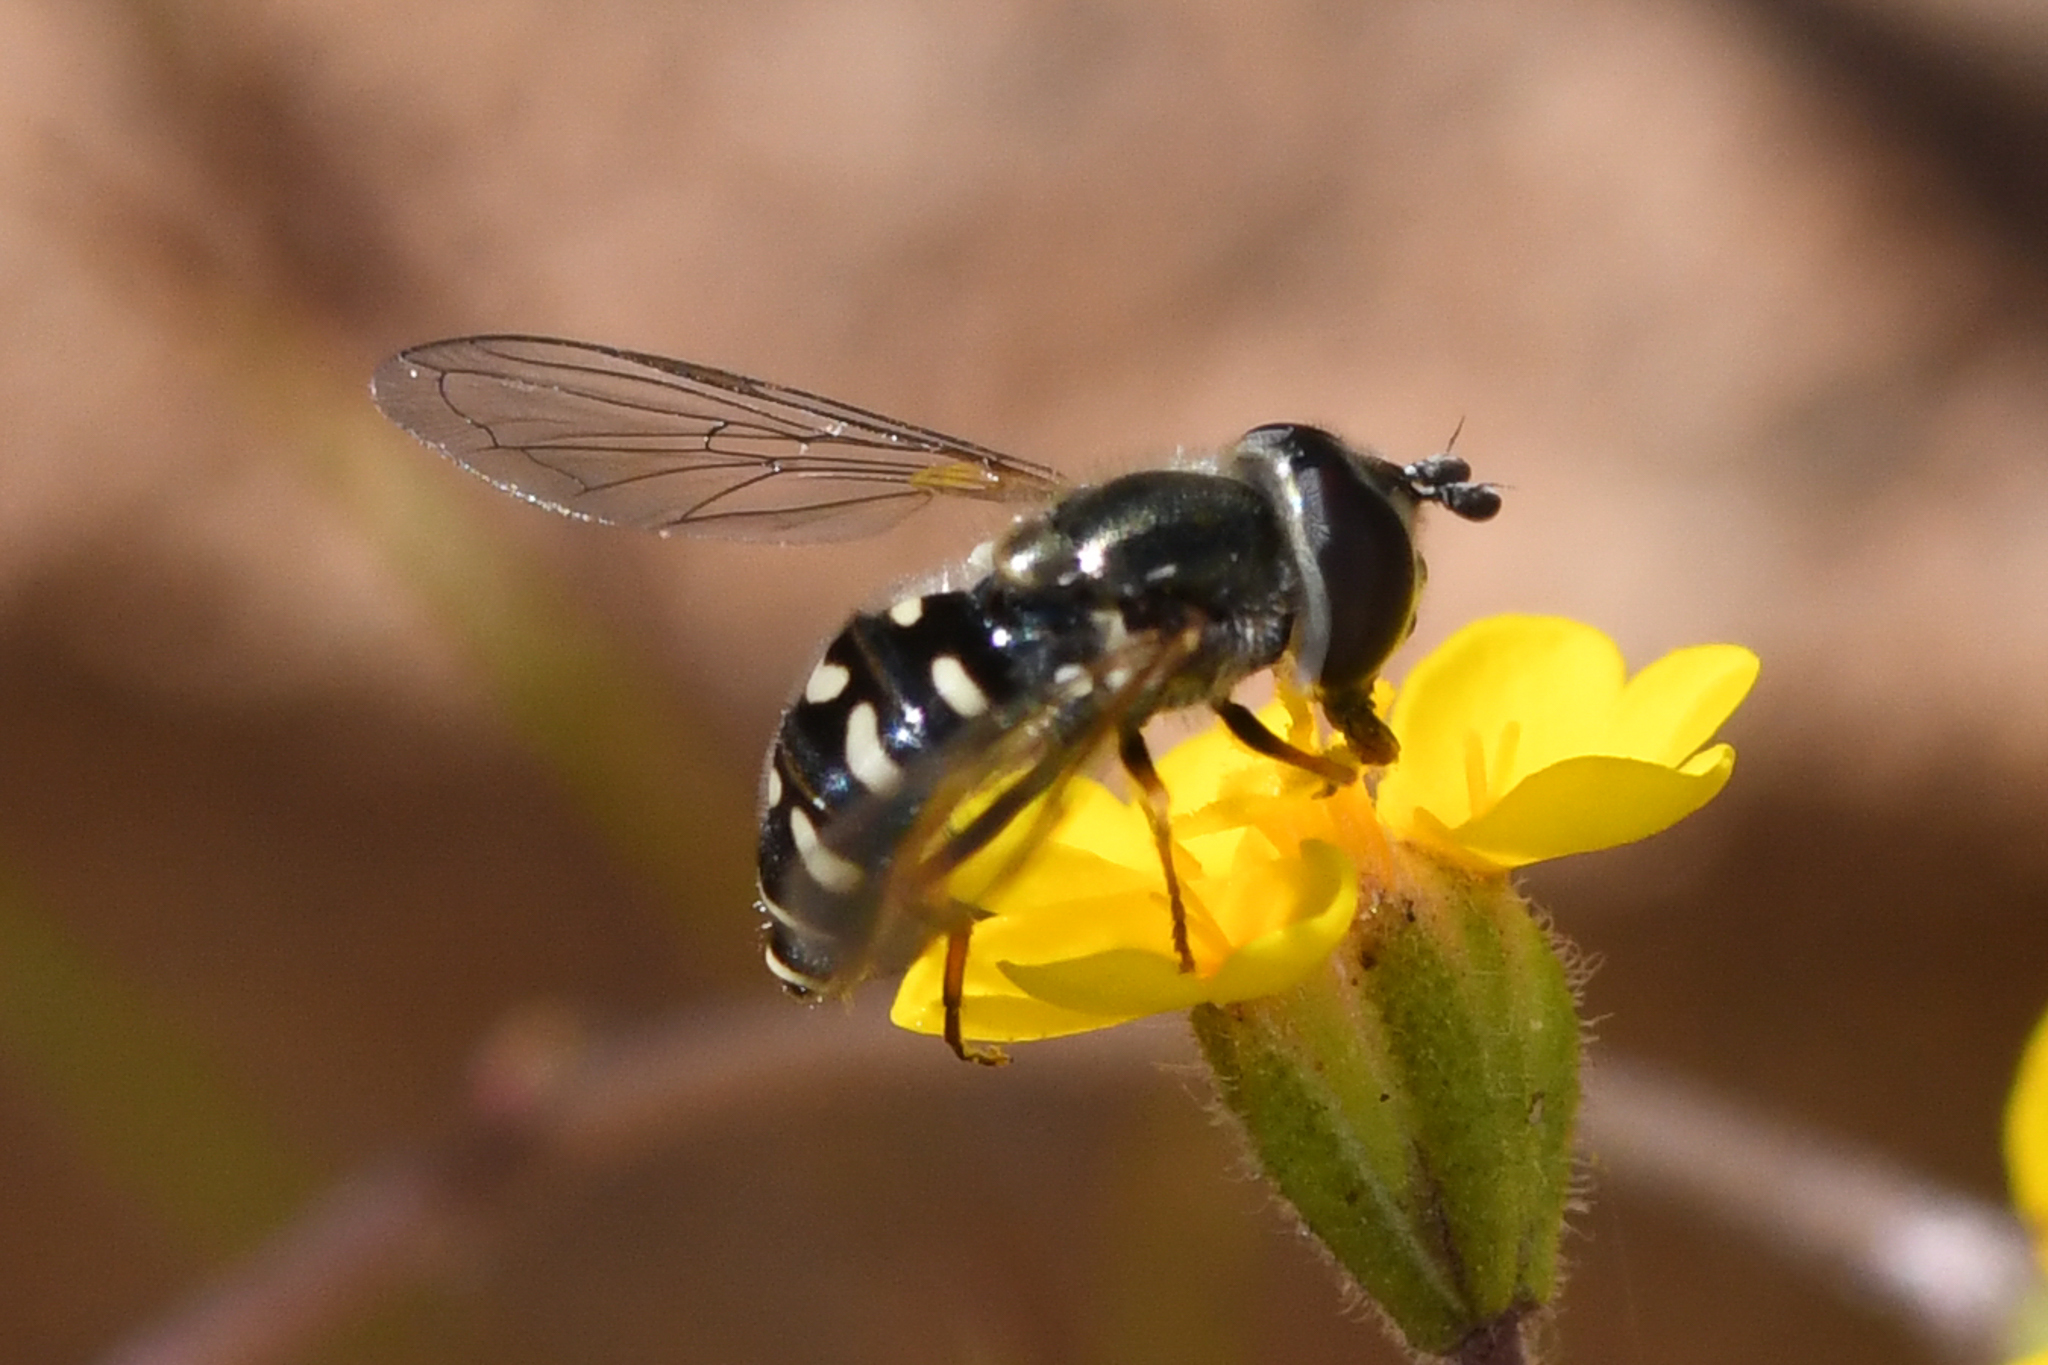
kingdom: Animalia
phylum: Arthropoda
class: Insecta
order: Diptera
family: Syrphidae
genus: Eupeodes
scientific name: Eupeodes volucris
